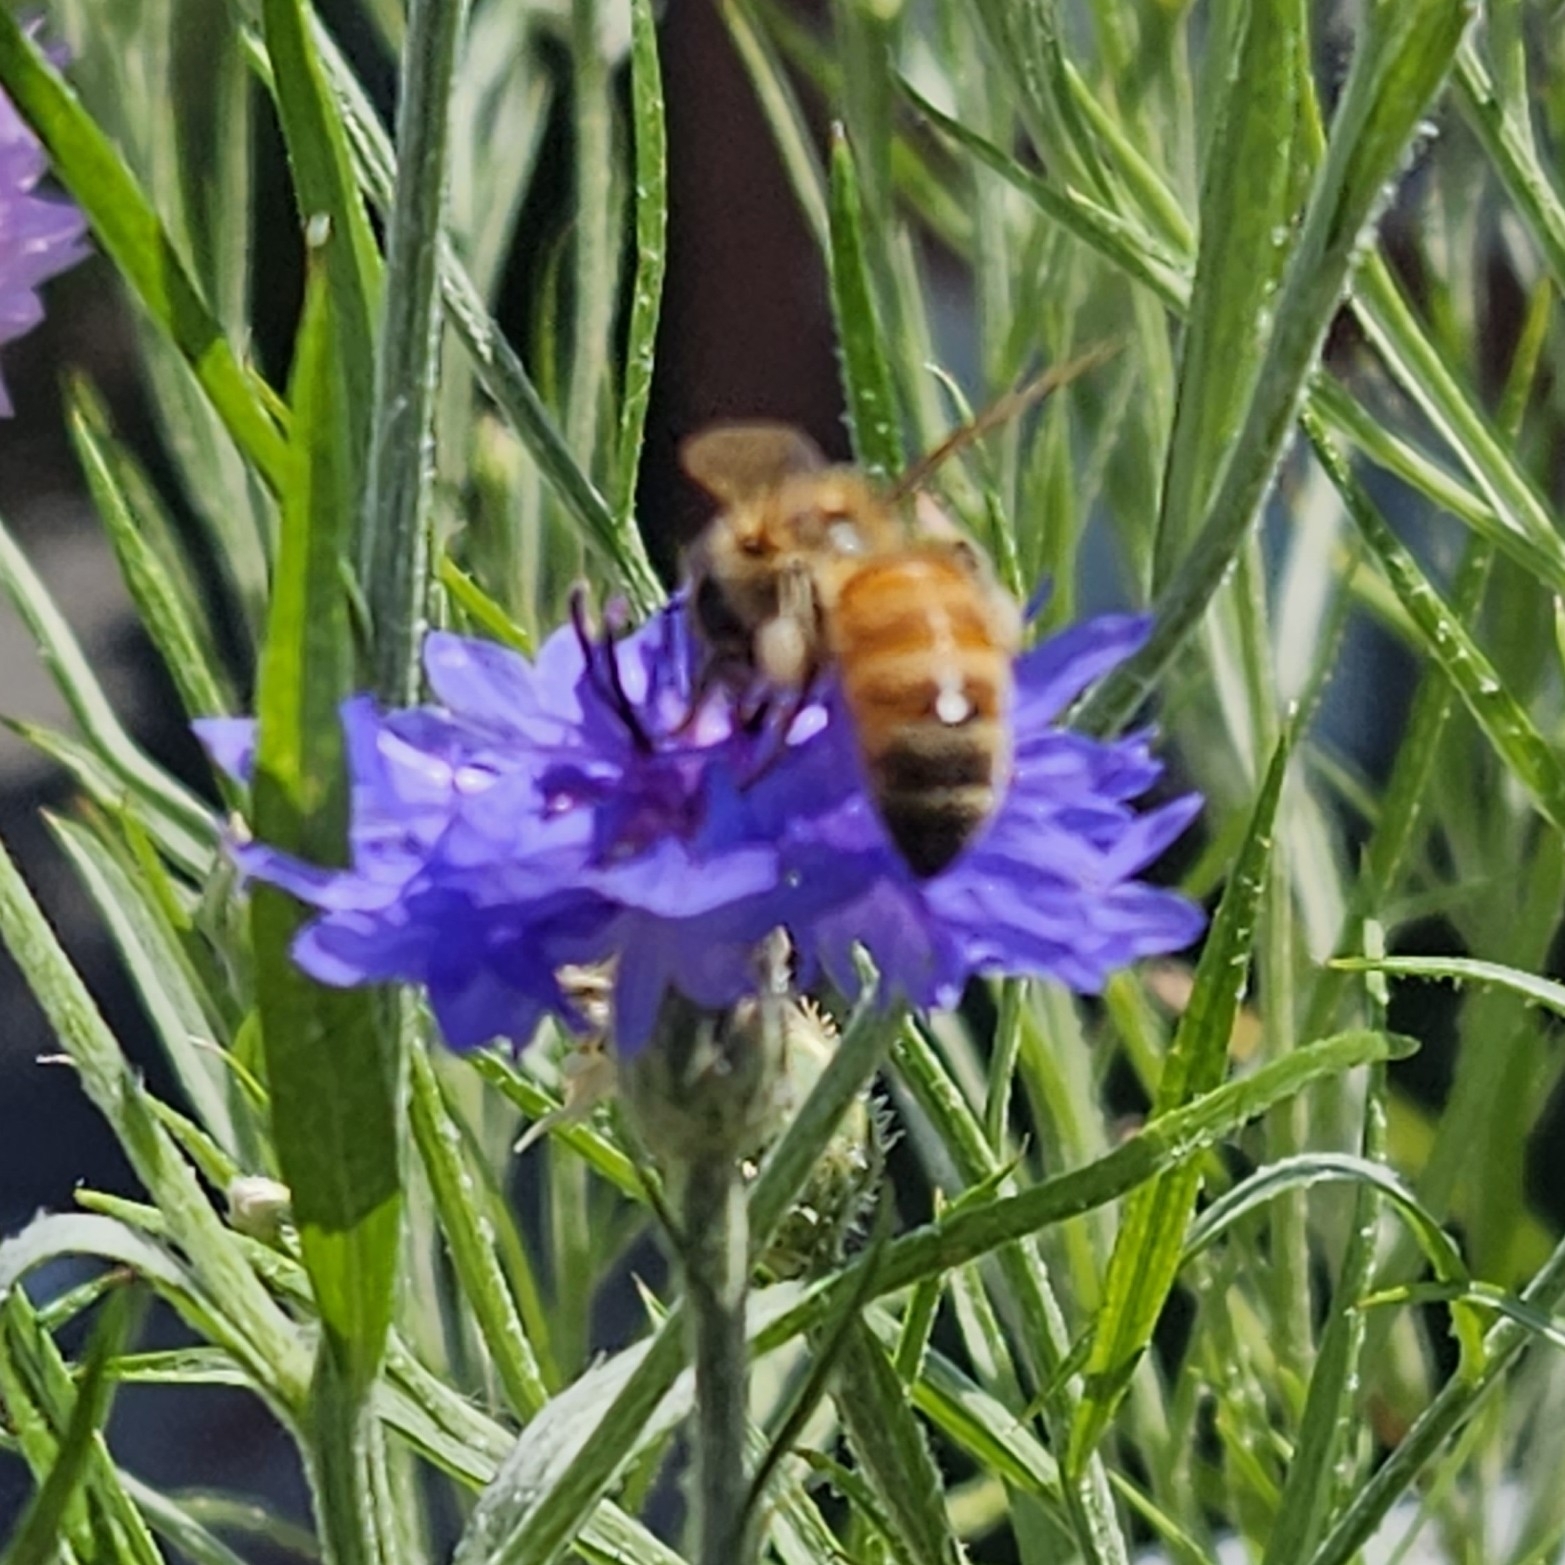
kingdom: Animalia
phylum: Arthropoda
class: Insecta
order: Hymenoptera
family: Apidae
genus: Apis
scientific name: Apis mellifera
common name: Honey bee
